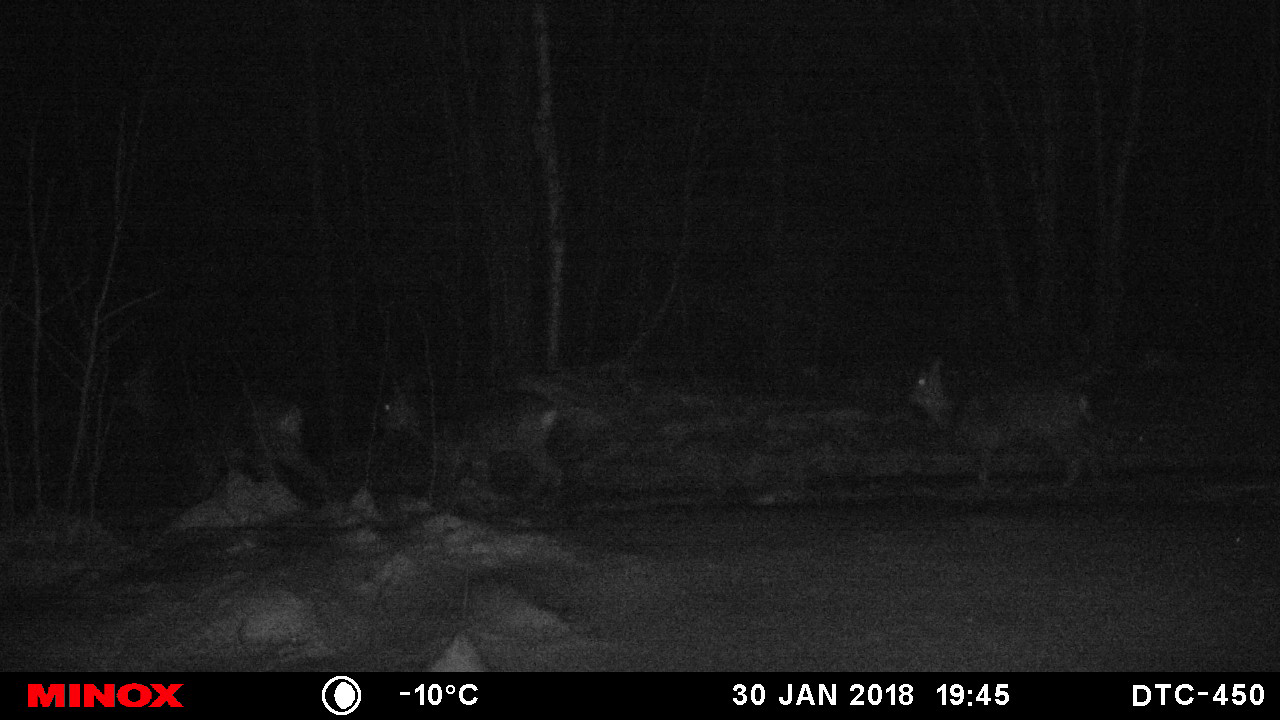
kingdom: Animalia
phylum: Chordata
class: Mammalia
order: Artiodactyla
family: Cervidae
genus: Capreolus
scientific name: Capreolus capreolus
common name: Western roe deer
